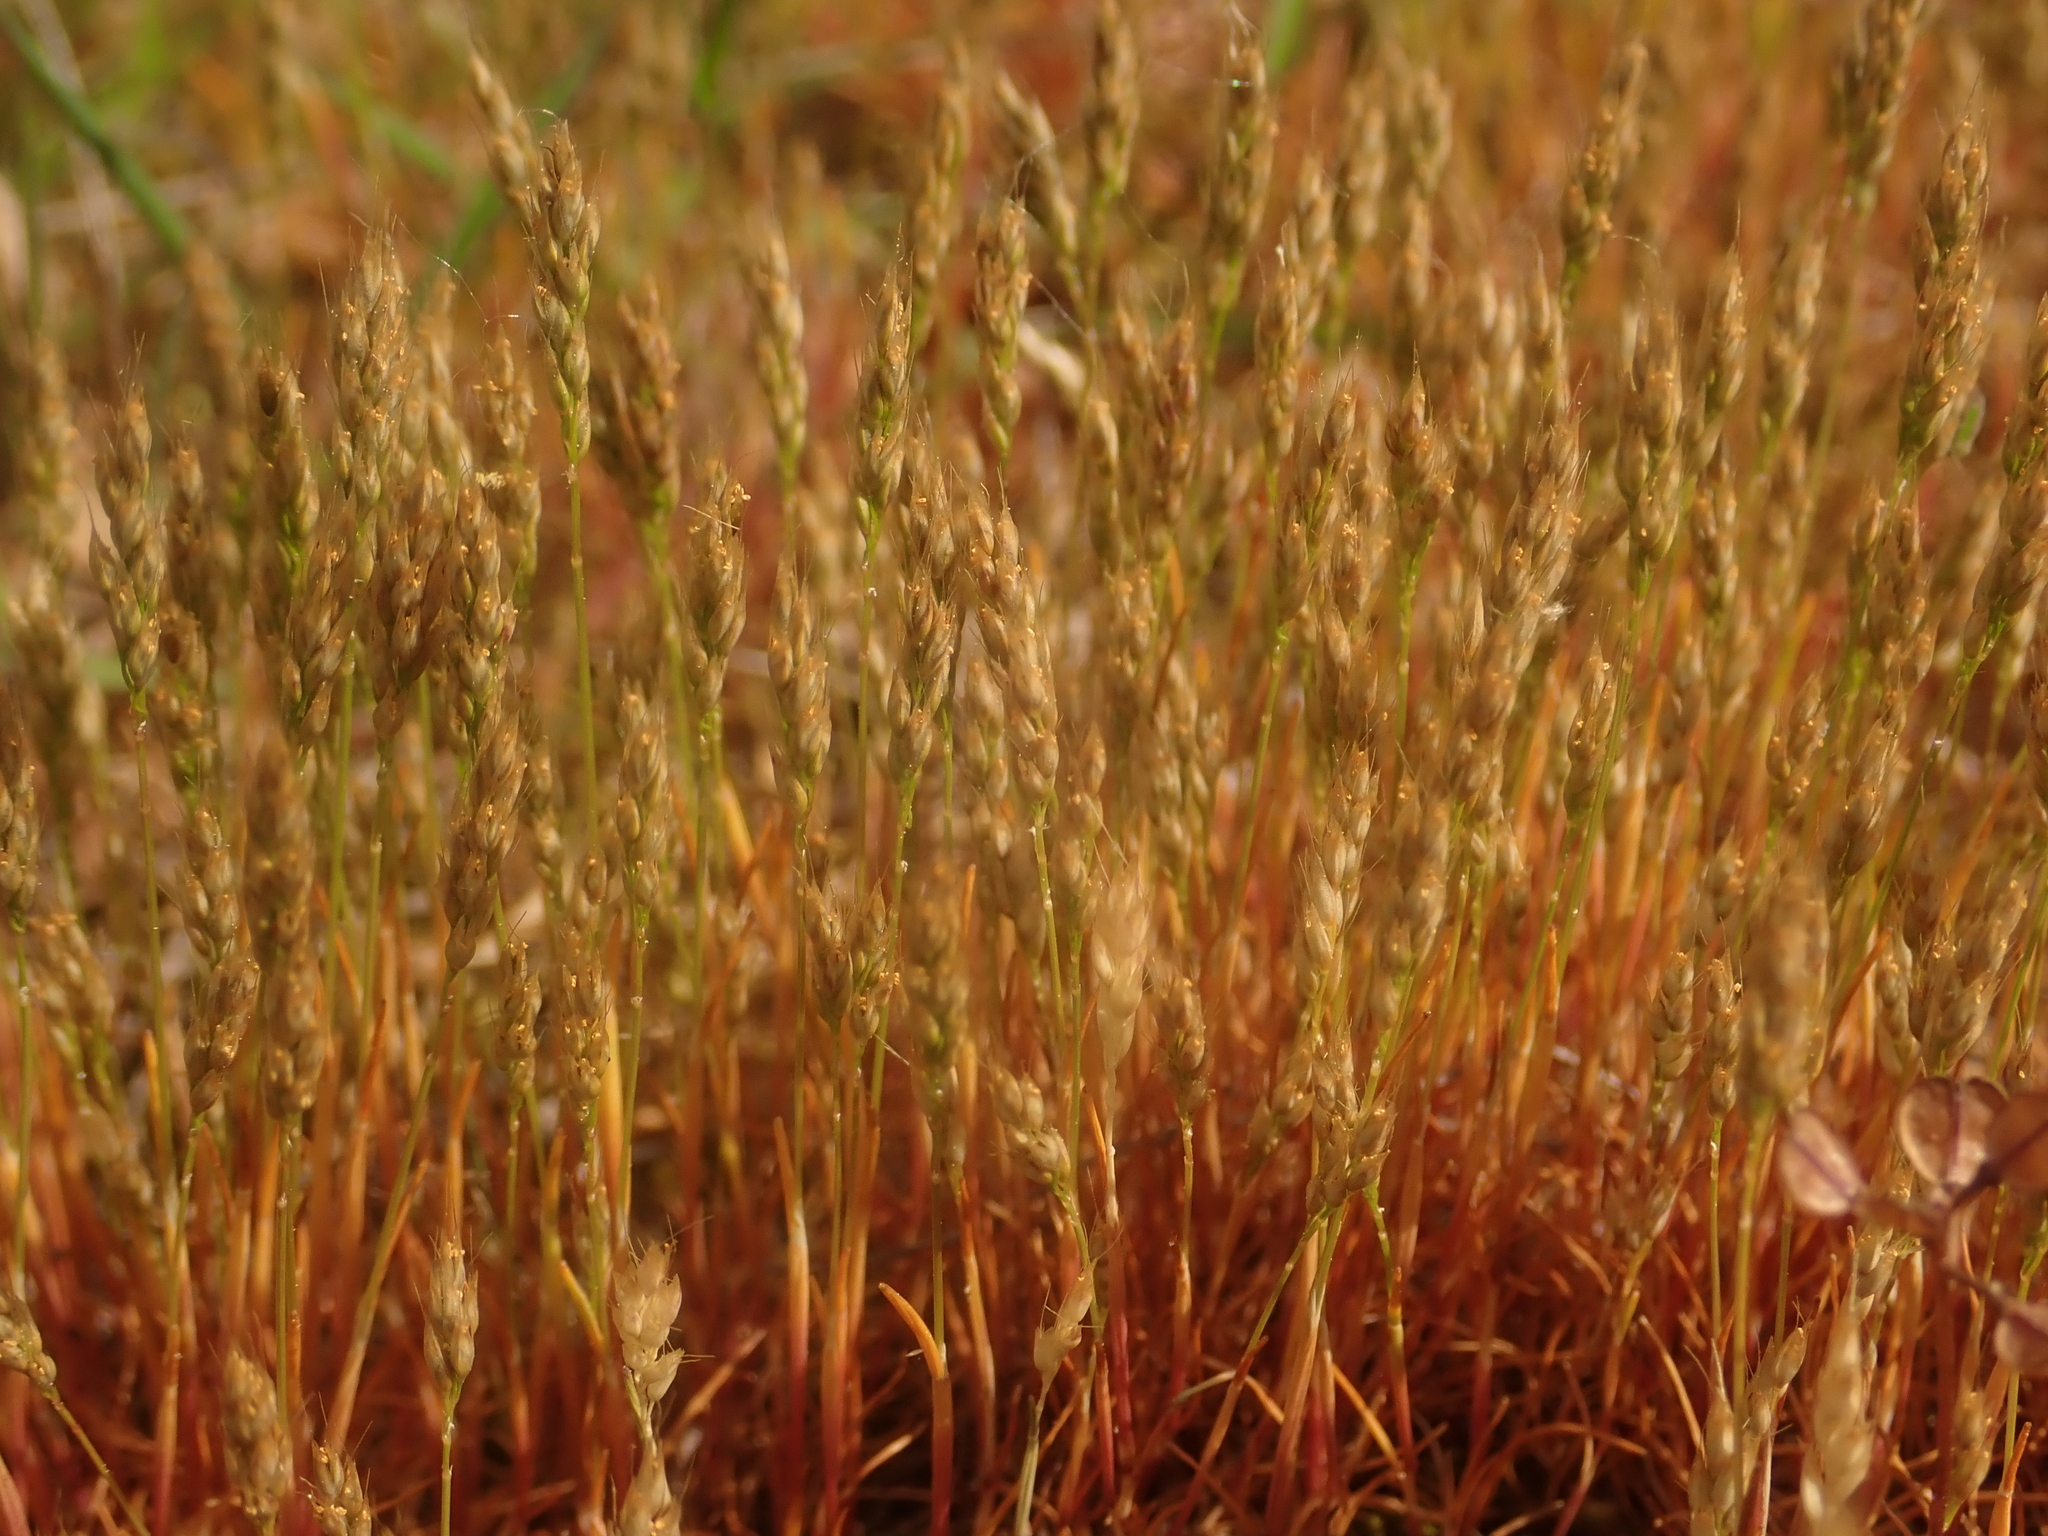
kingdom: Plantae
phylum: Tracheophyta
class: Liliopsida
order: Poales
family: Poaceae
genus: Aira
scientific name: Aira praecox
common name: Early hair-grass
